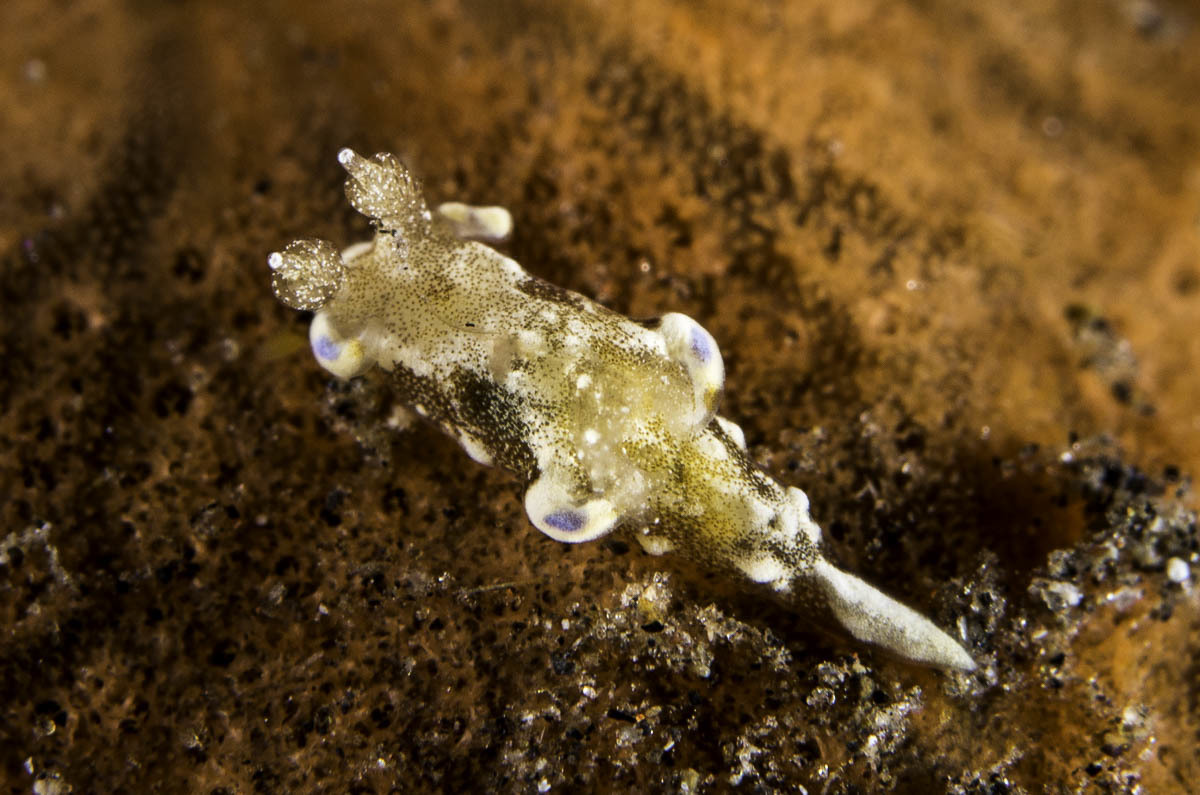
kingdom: Animalia
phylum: Mollusca
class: Gastropoda
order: Nudibranchia
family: Goniodorididae
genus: Trapania
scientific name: Trapania palmula
